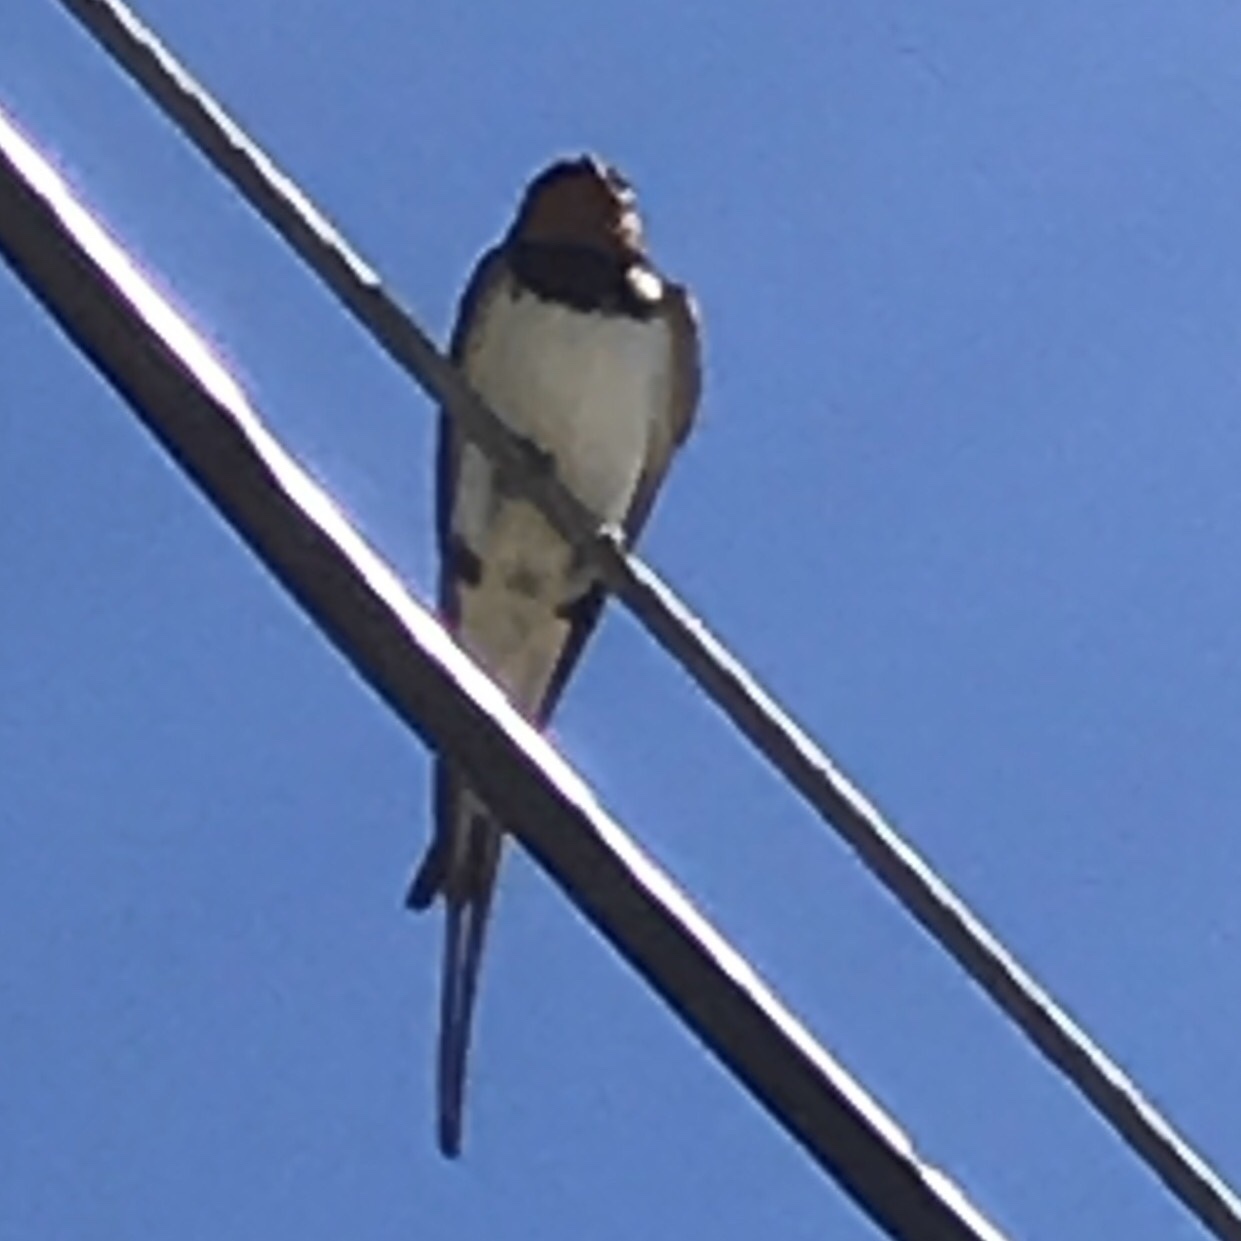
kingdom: Animalia
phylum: Chordata
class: Aves
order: Passeriformes
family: Hirundinidae
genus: Hirundo
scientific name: Hirundo rustica
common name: Barn swallow
